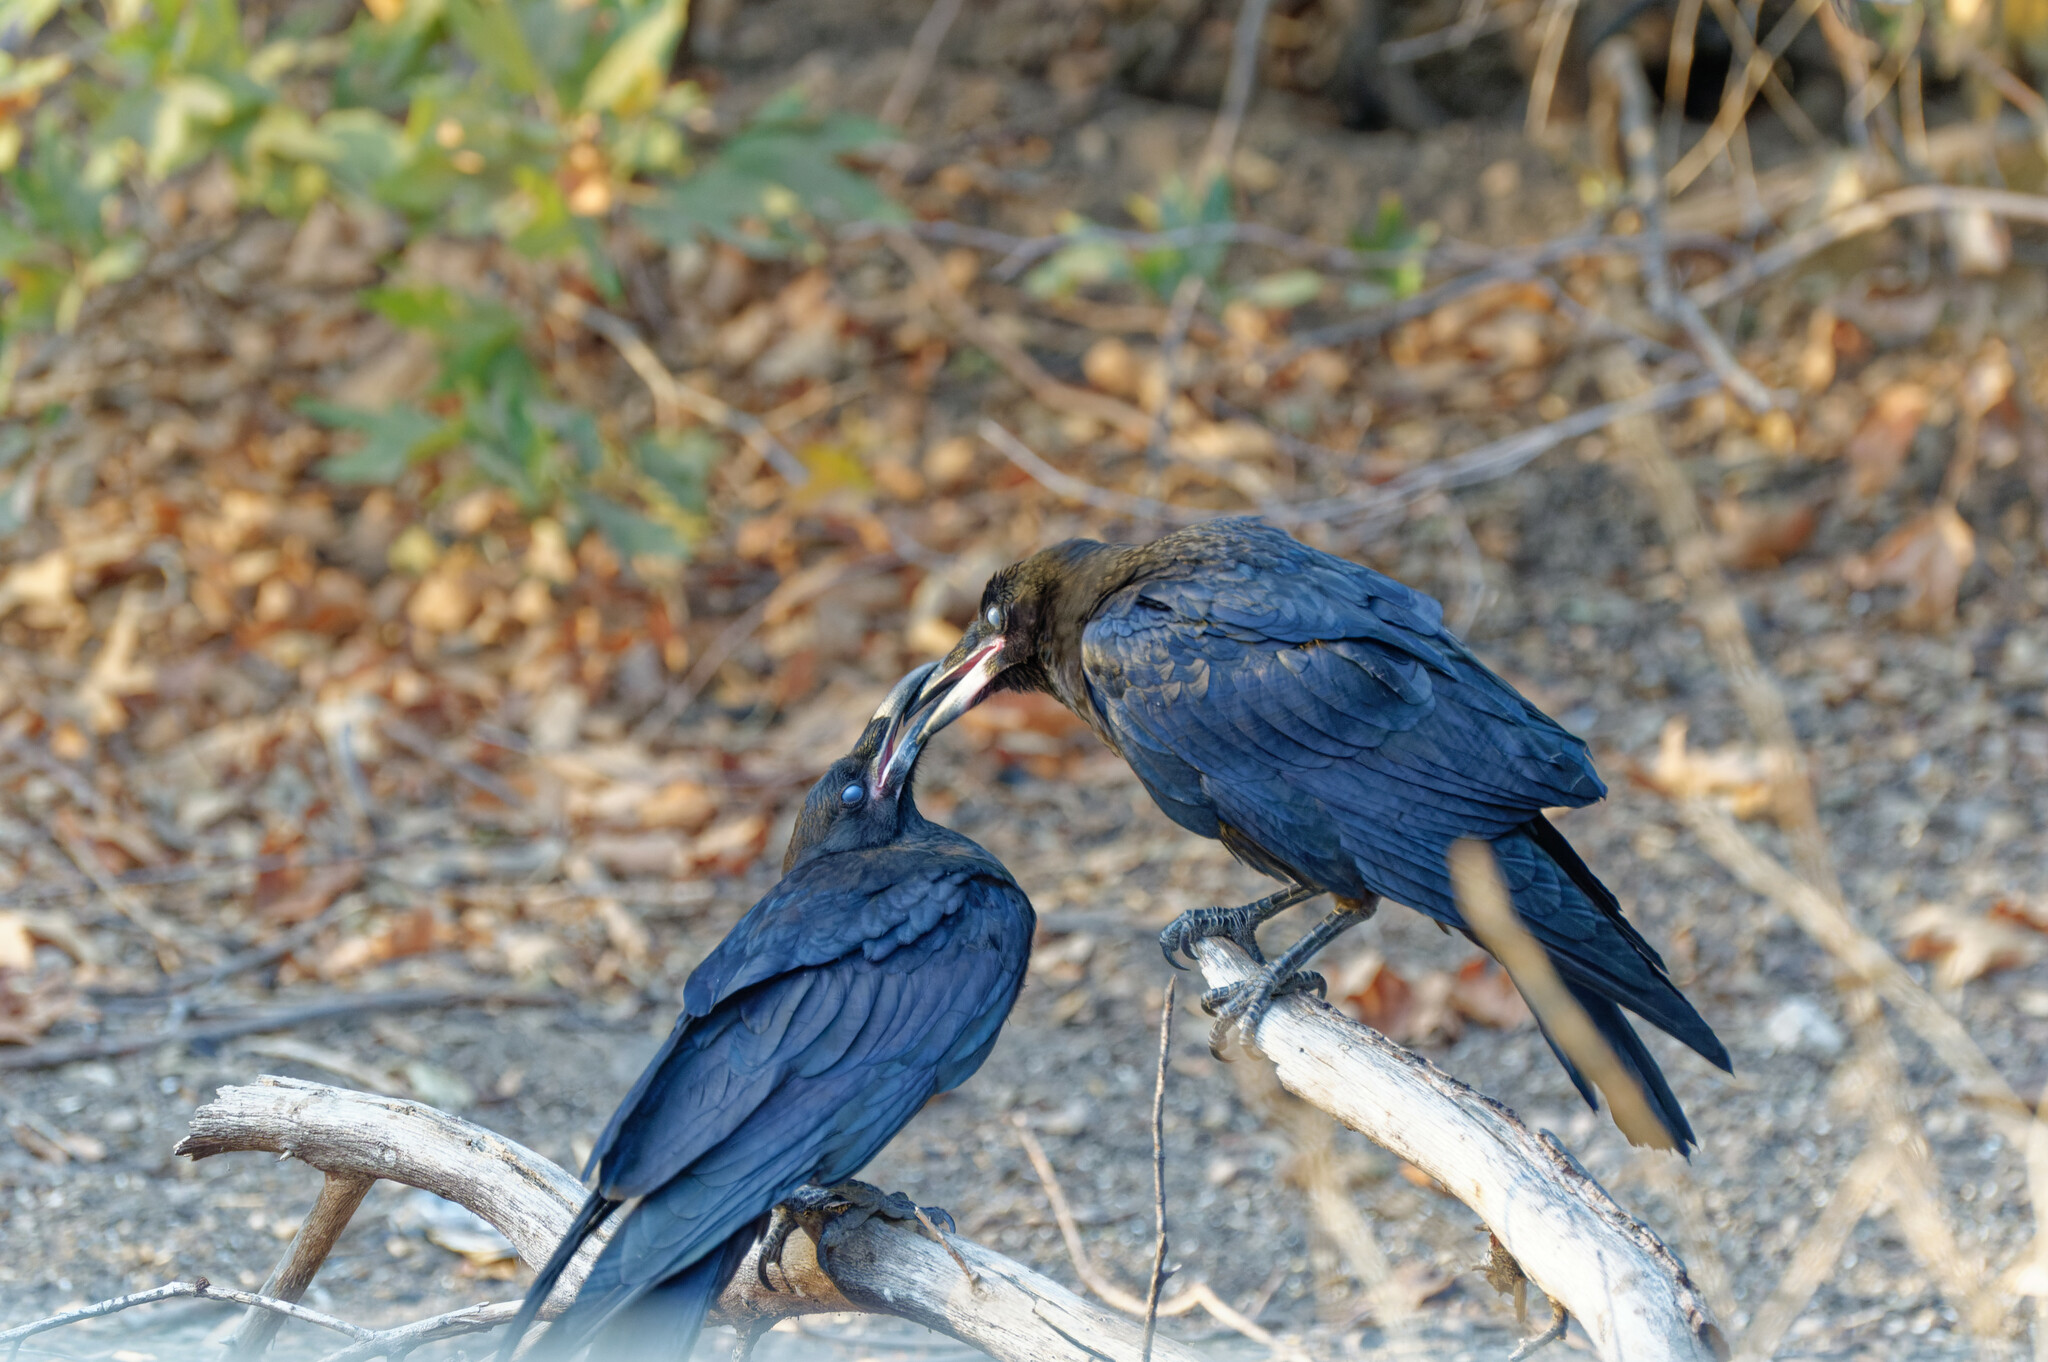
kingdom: Animalia
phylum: Chordata
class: Aves
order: Passeriformes
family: Corvidae
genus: Corvus
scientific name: Corvus corax
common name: Common raven
